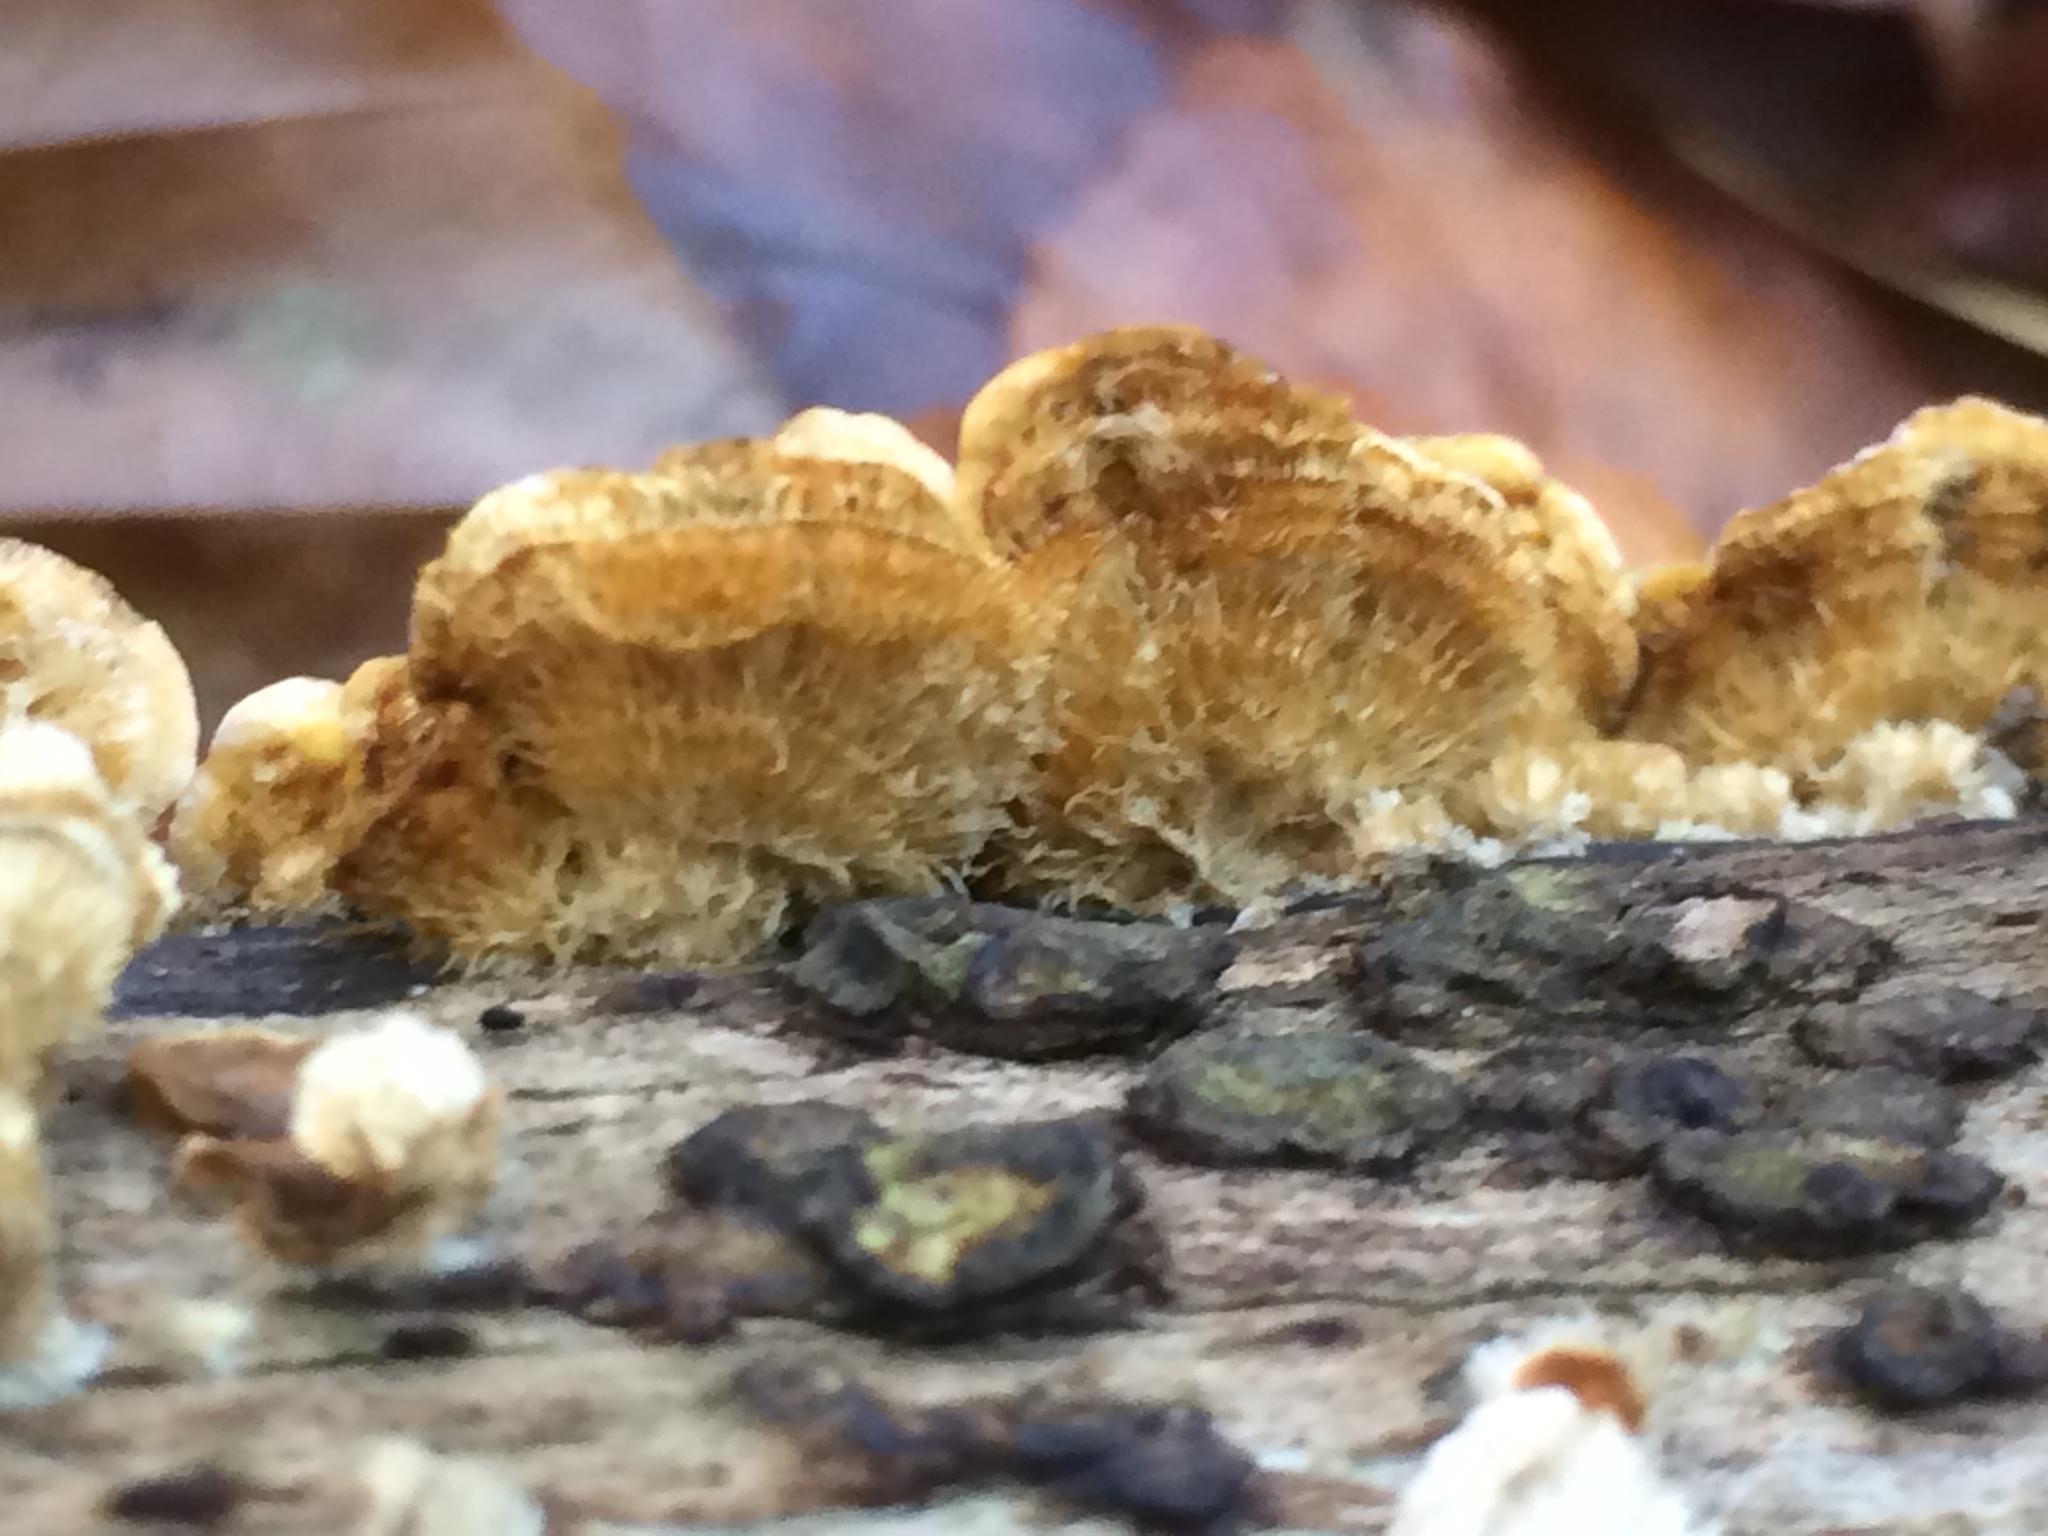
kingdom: Fungi
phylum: Basidiomycota
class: Agaricomycetes
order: Russulales
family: Stereaceae
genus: Stereum
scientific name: Stereum hirsutum
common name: Hairy curtain crust
